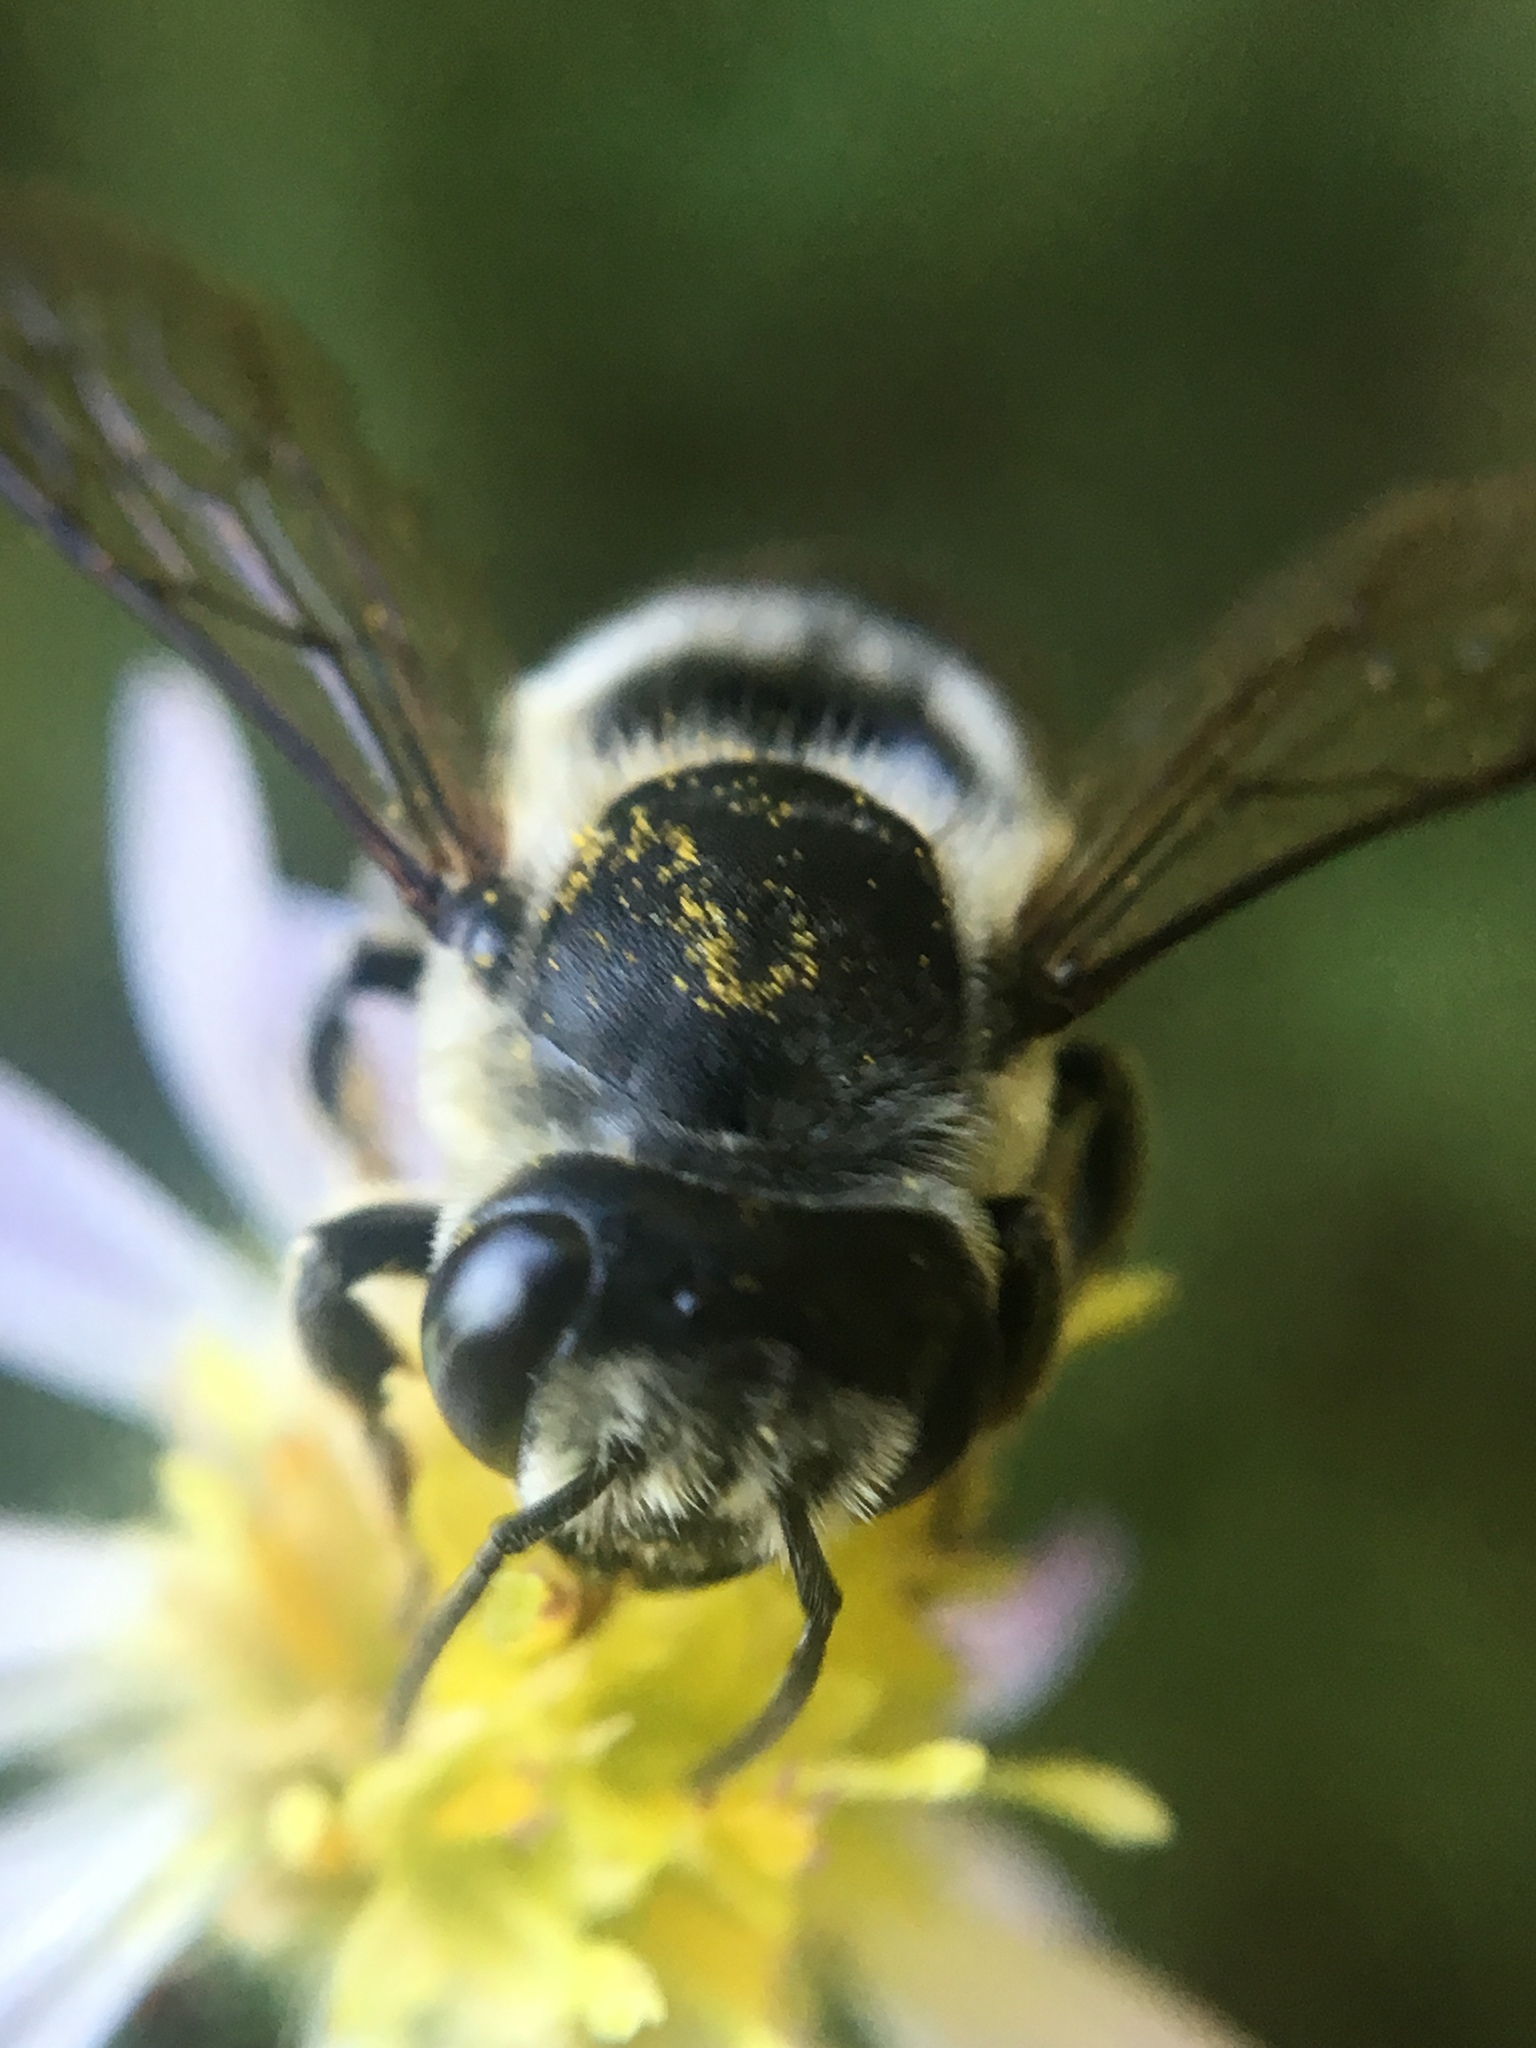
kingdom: Animalia
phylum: Arthropoda
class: Insecta
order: Hymenoptera
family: Megachilidae
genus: Megachile
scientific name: Megachile mendica
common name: Flat-tailed leafcutter
